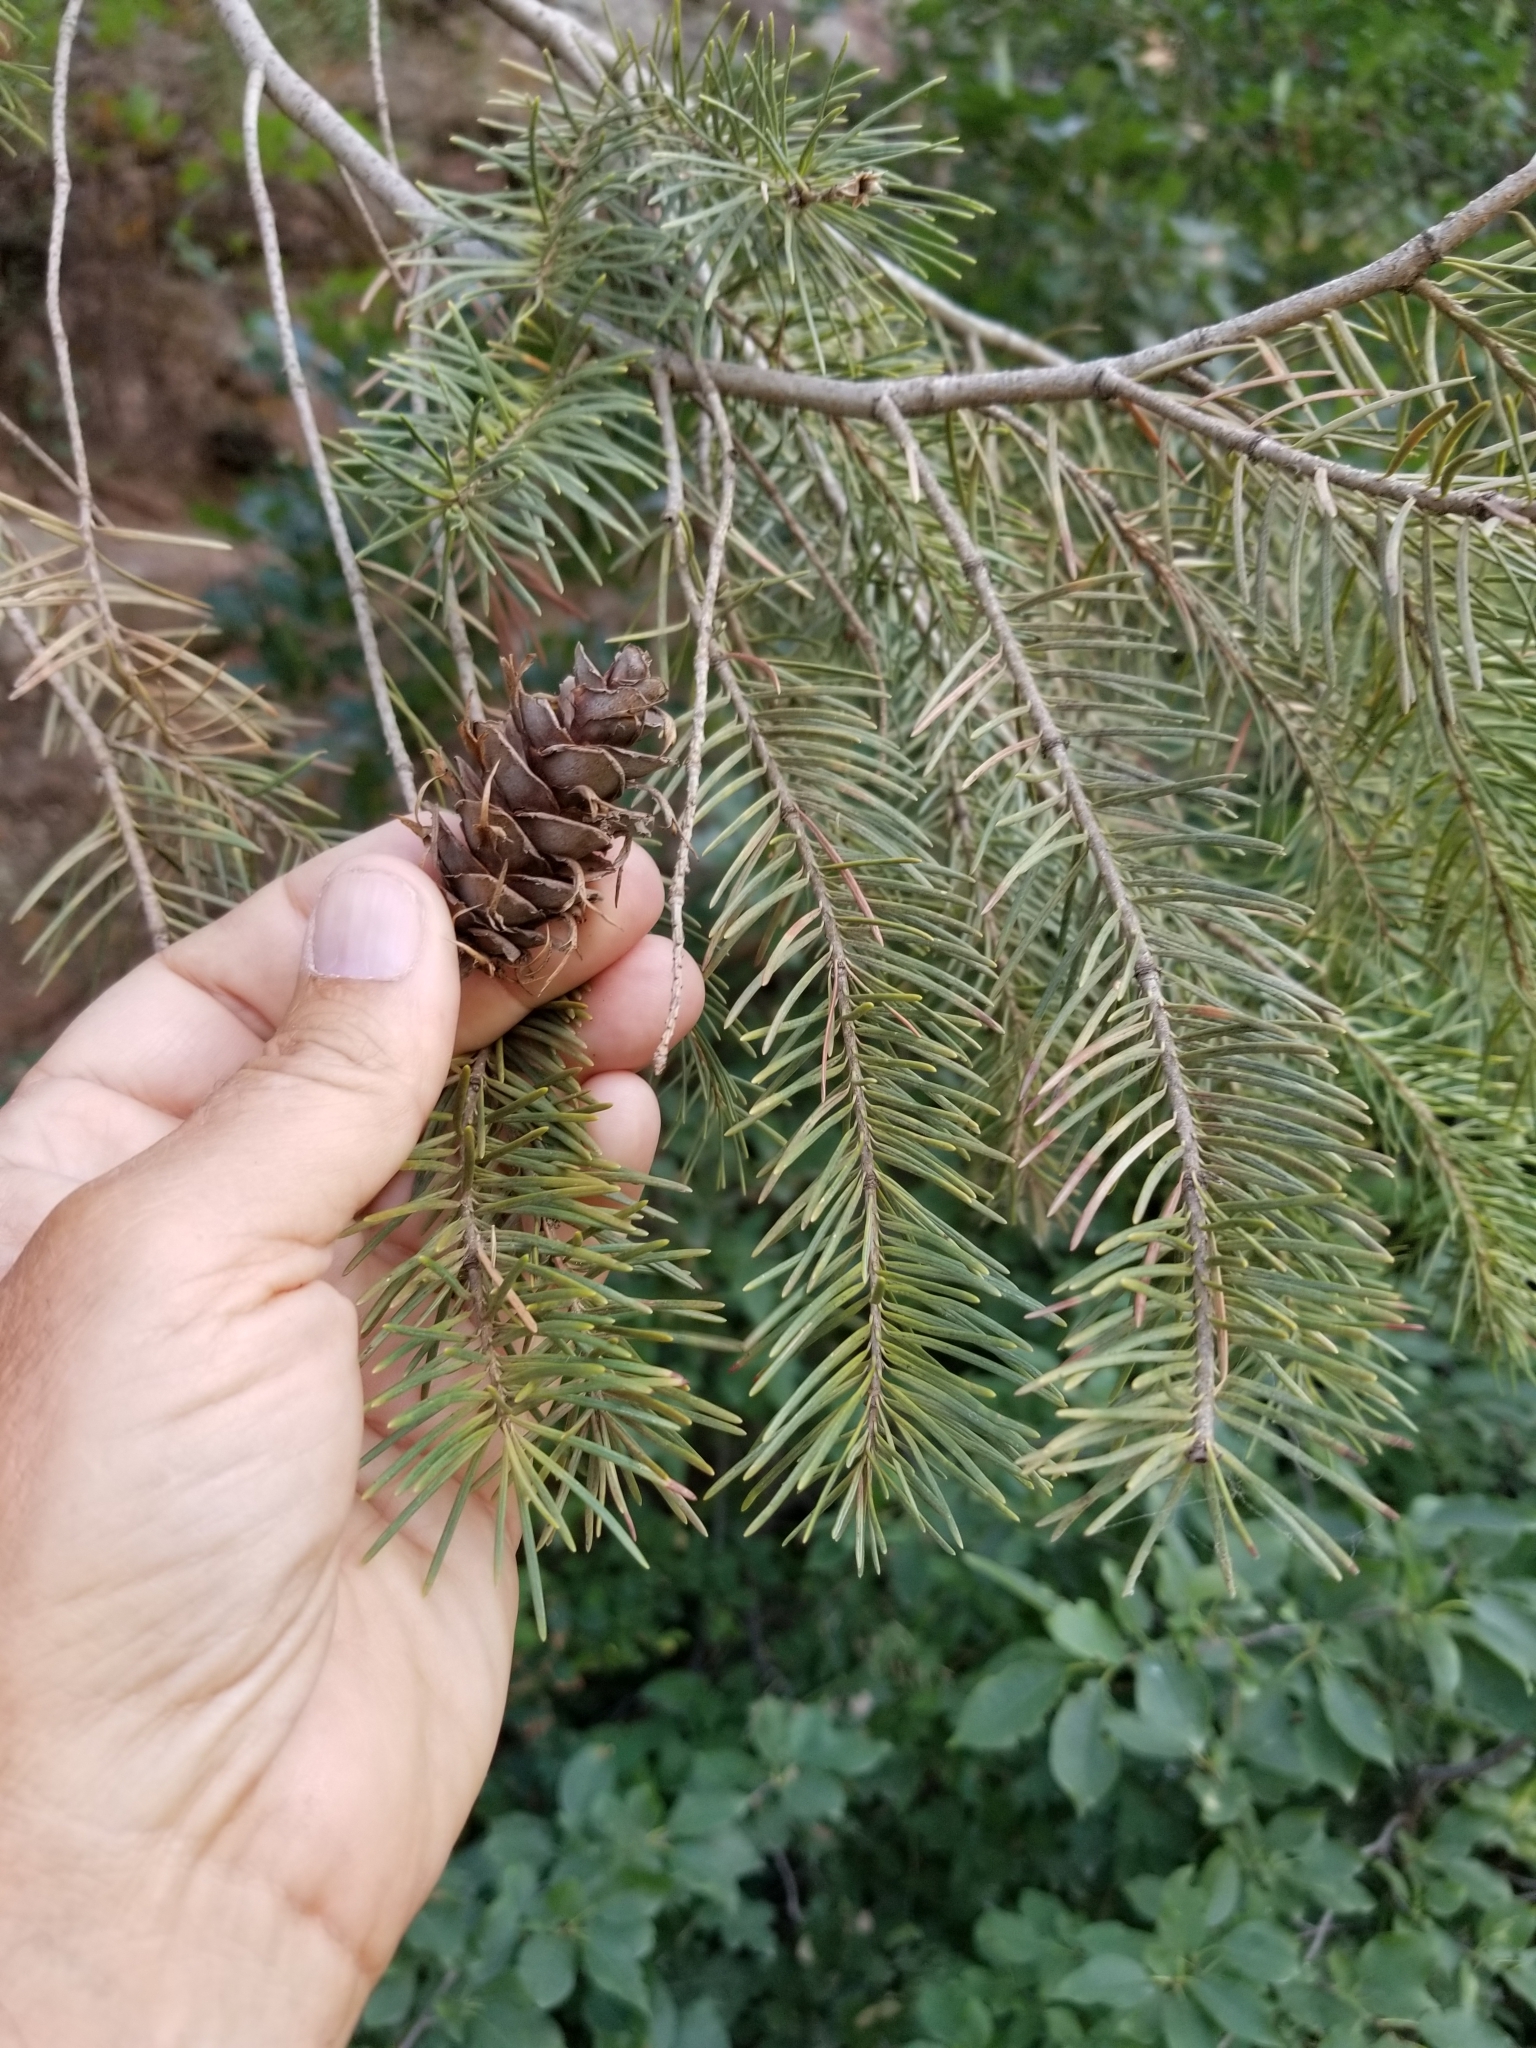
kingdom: Plantae
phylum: Tracheophyta
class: Pinopsida
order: Pinales
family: Pinaceae
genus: Pseudotsuga
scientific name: Pseudotsuga menziesii
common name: Douglas fir
